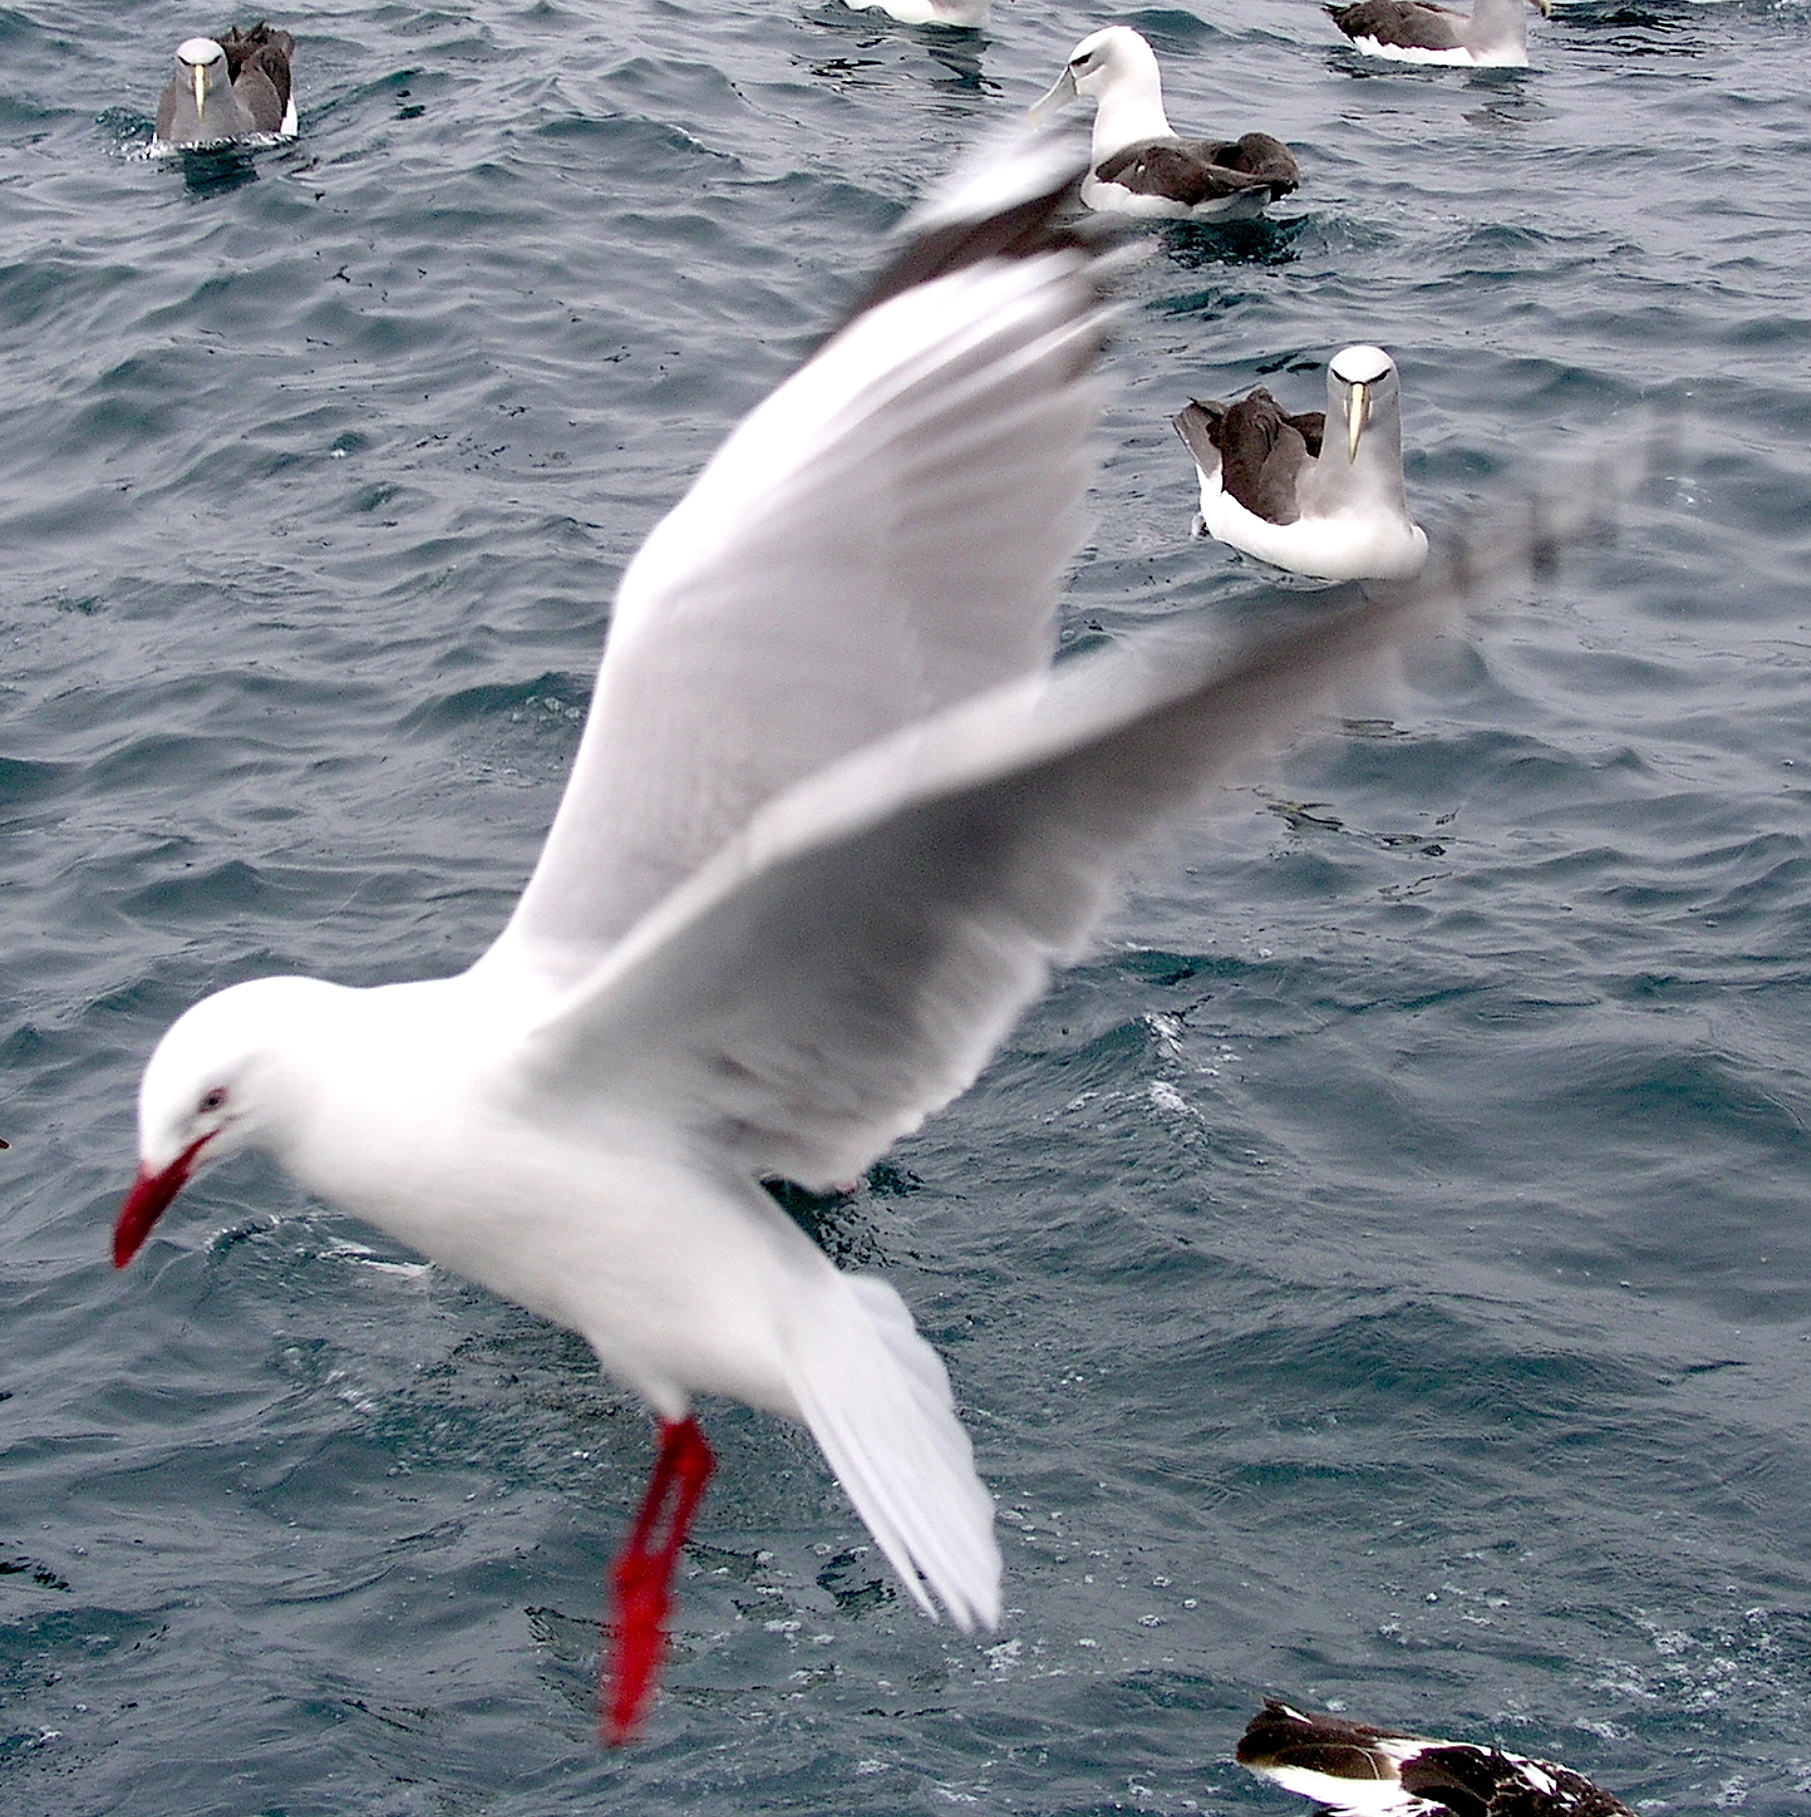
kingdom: Animalia
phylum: Chordata
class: Aves
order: Charadriiformes
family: Laridae
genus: Chroicocephalus
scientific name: Chroicocephalus novaehollandiae
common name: Silver gull
